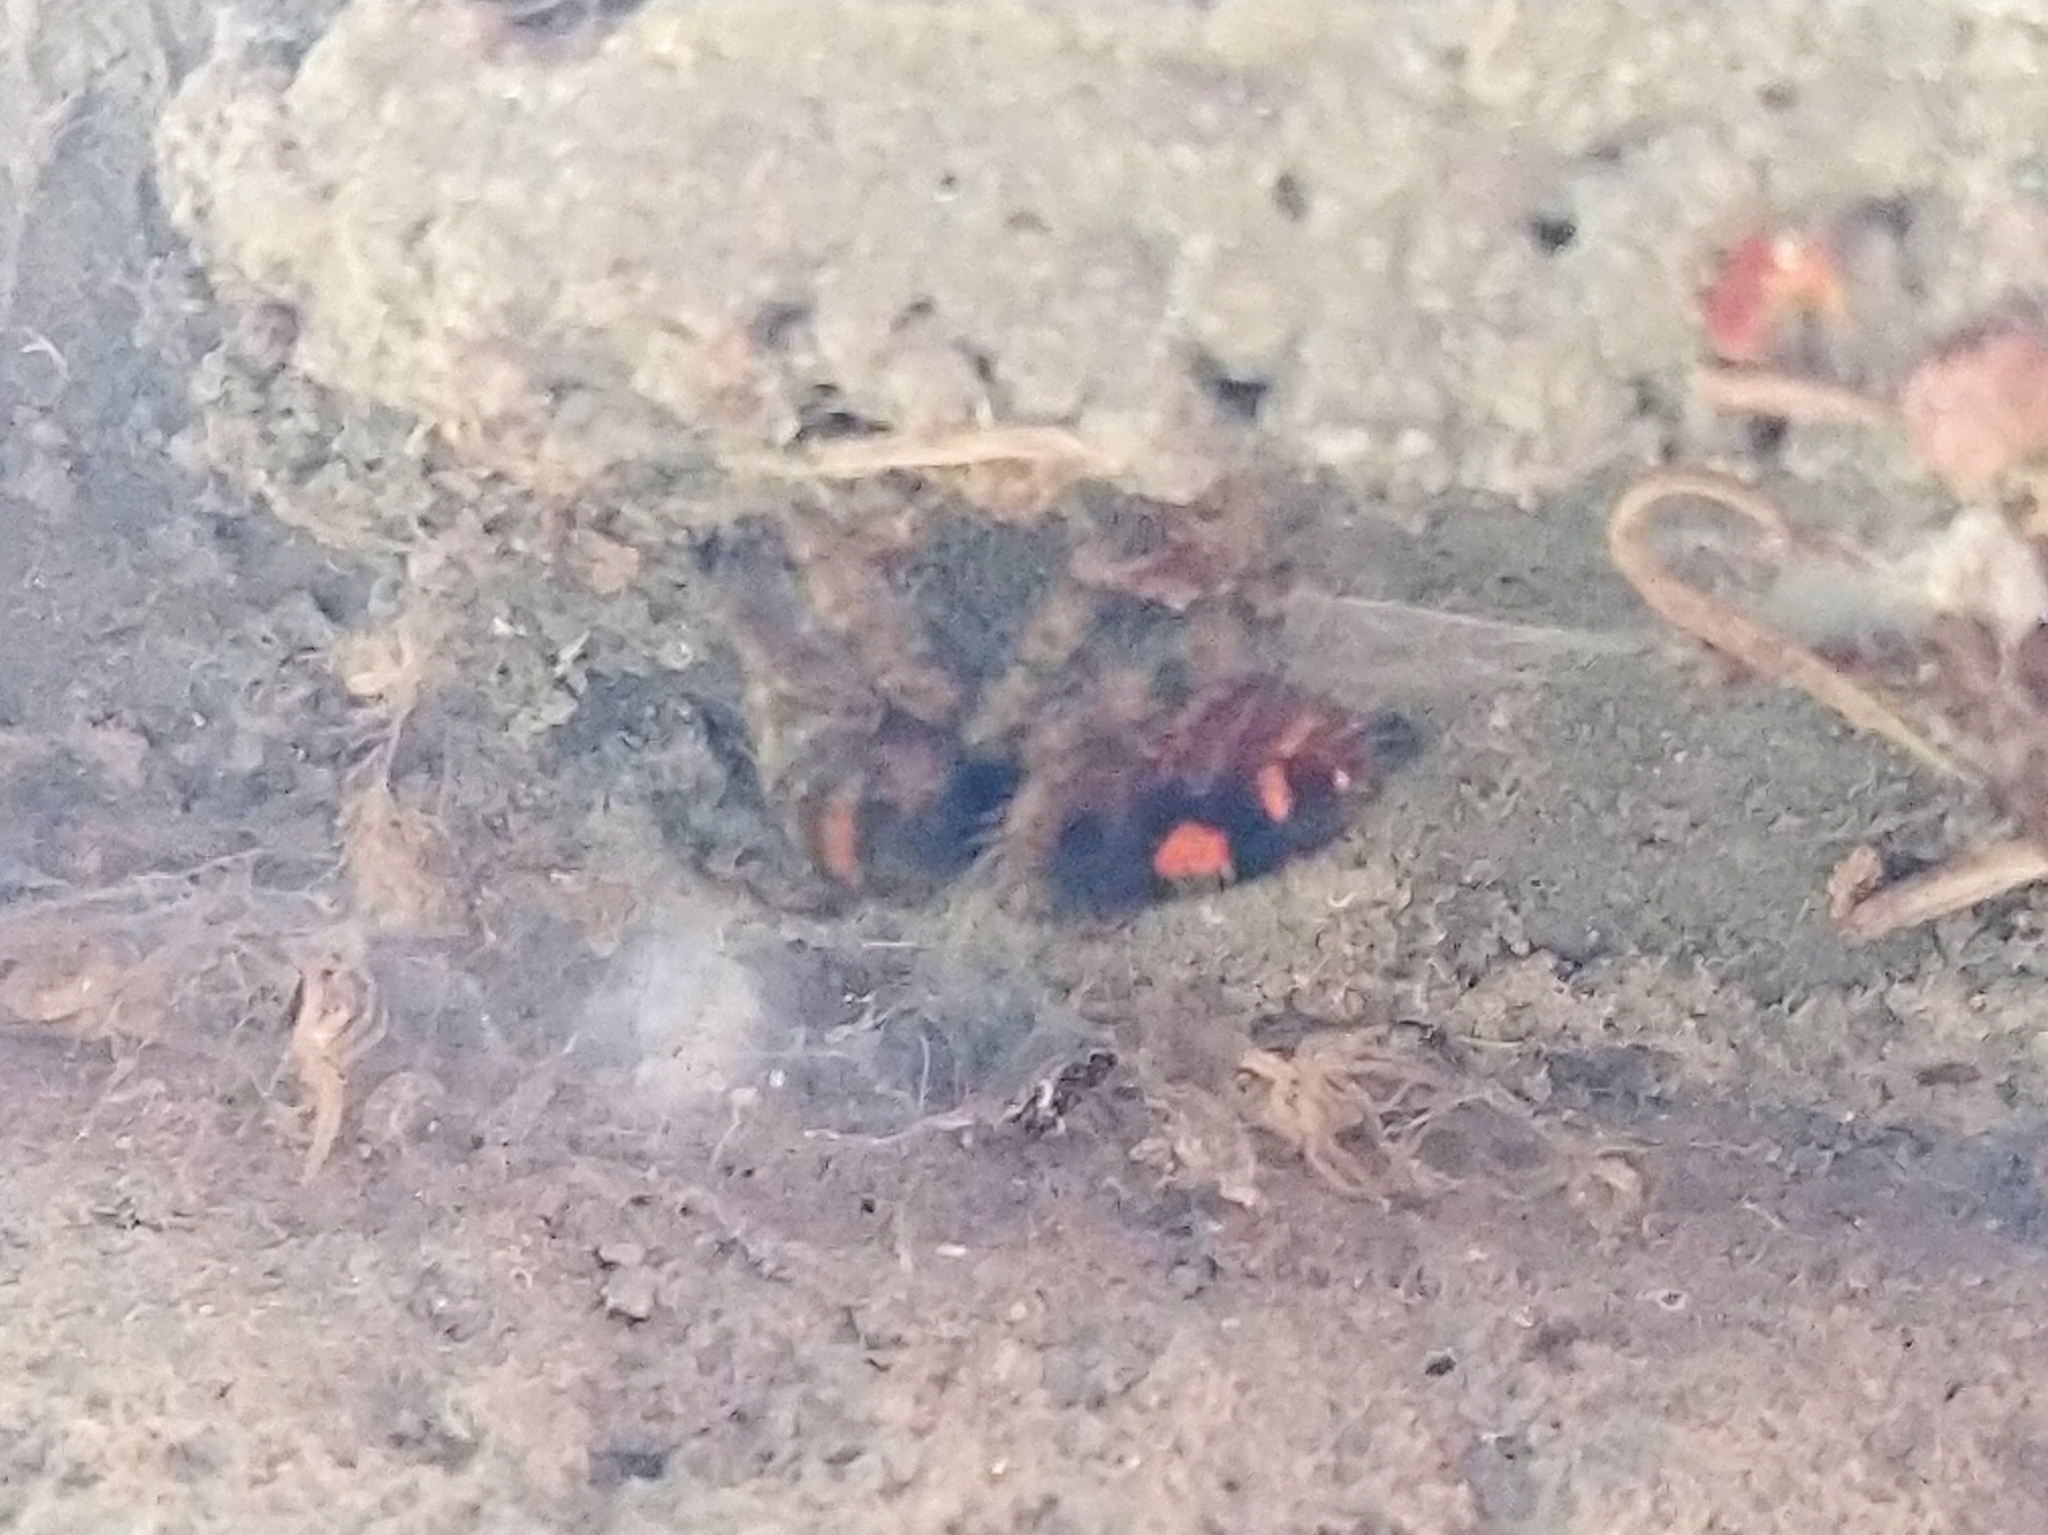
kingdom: Animalia
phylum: Arthropoda
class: Arachnida
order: Araneae
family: Salticidae
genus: Phidippus
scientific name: Phidippus audax
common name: Bold jumper
